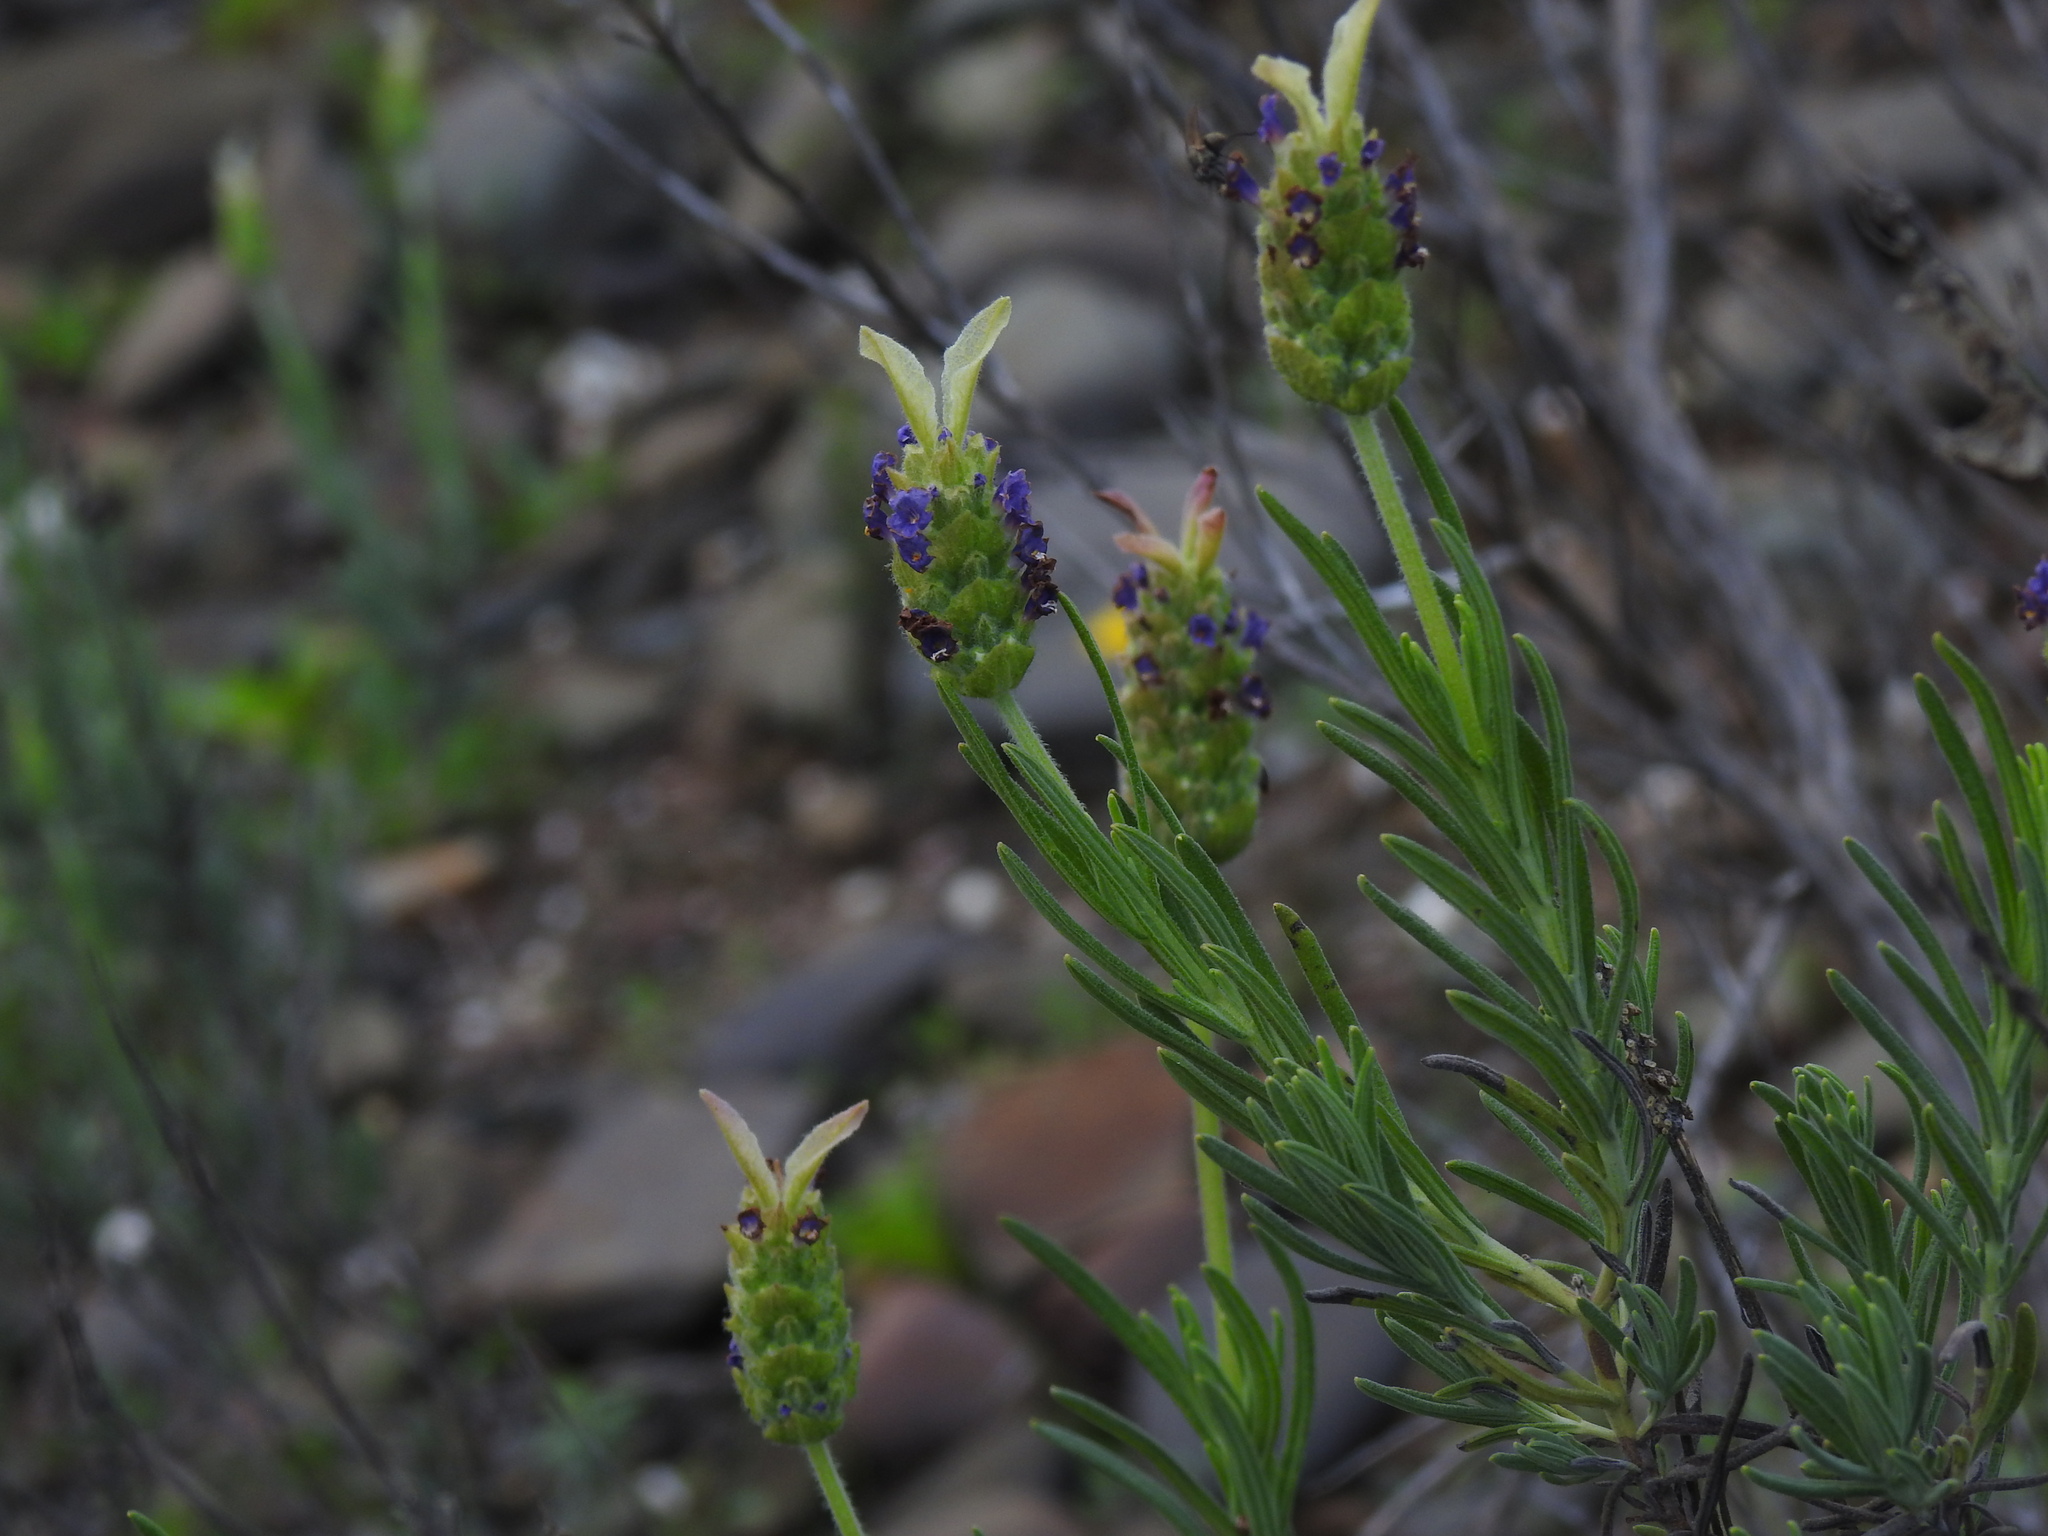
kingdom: Plantae
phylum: Tracheophyta
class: Magnoliopsida
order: Lamiales
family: Lamiaceae
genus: Lavandula
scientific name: Lavandula limae
